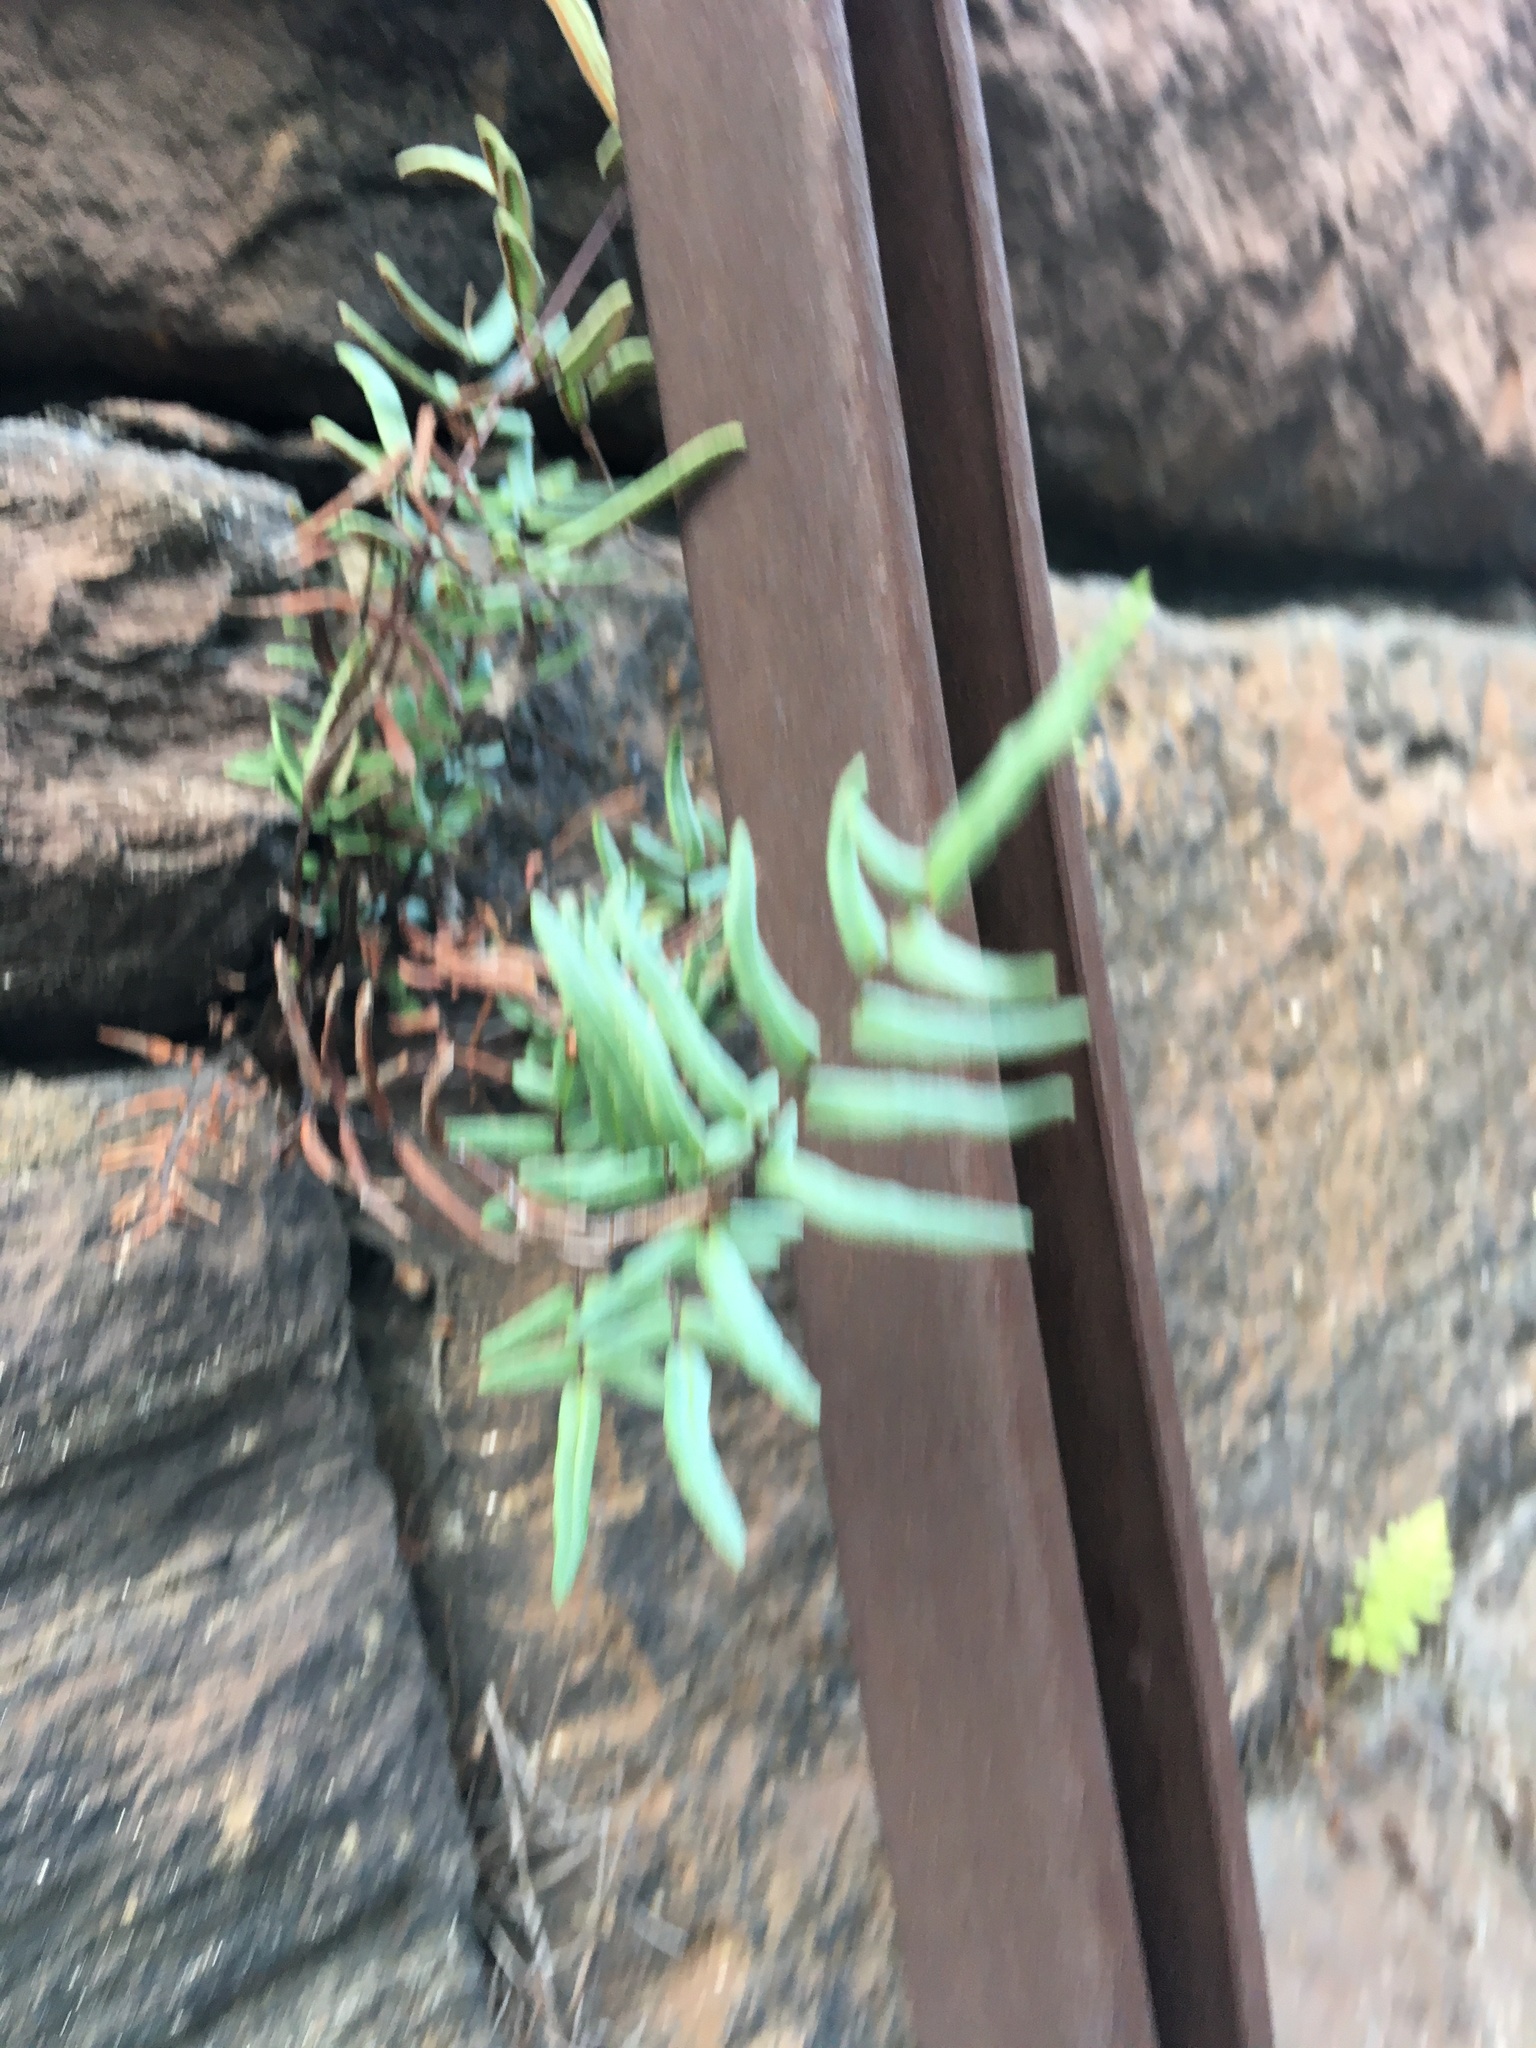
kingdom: Plantae
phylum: Tracheophyta
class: Polypodiopsida
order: Polypodiales
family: Pteridaceae
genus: Pellaea
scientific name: Pellaea atropurpurea
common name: Hairy cliffbrake
